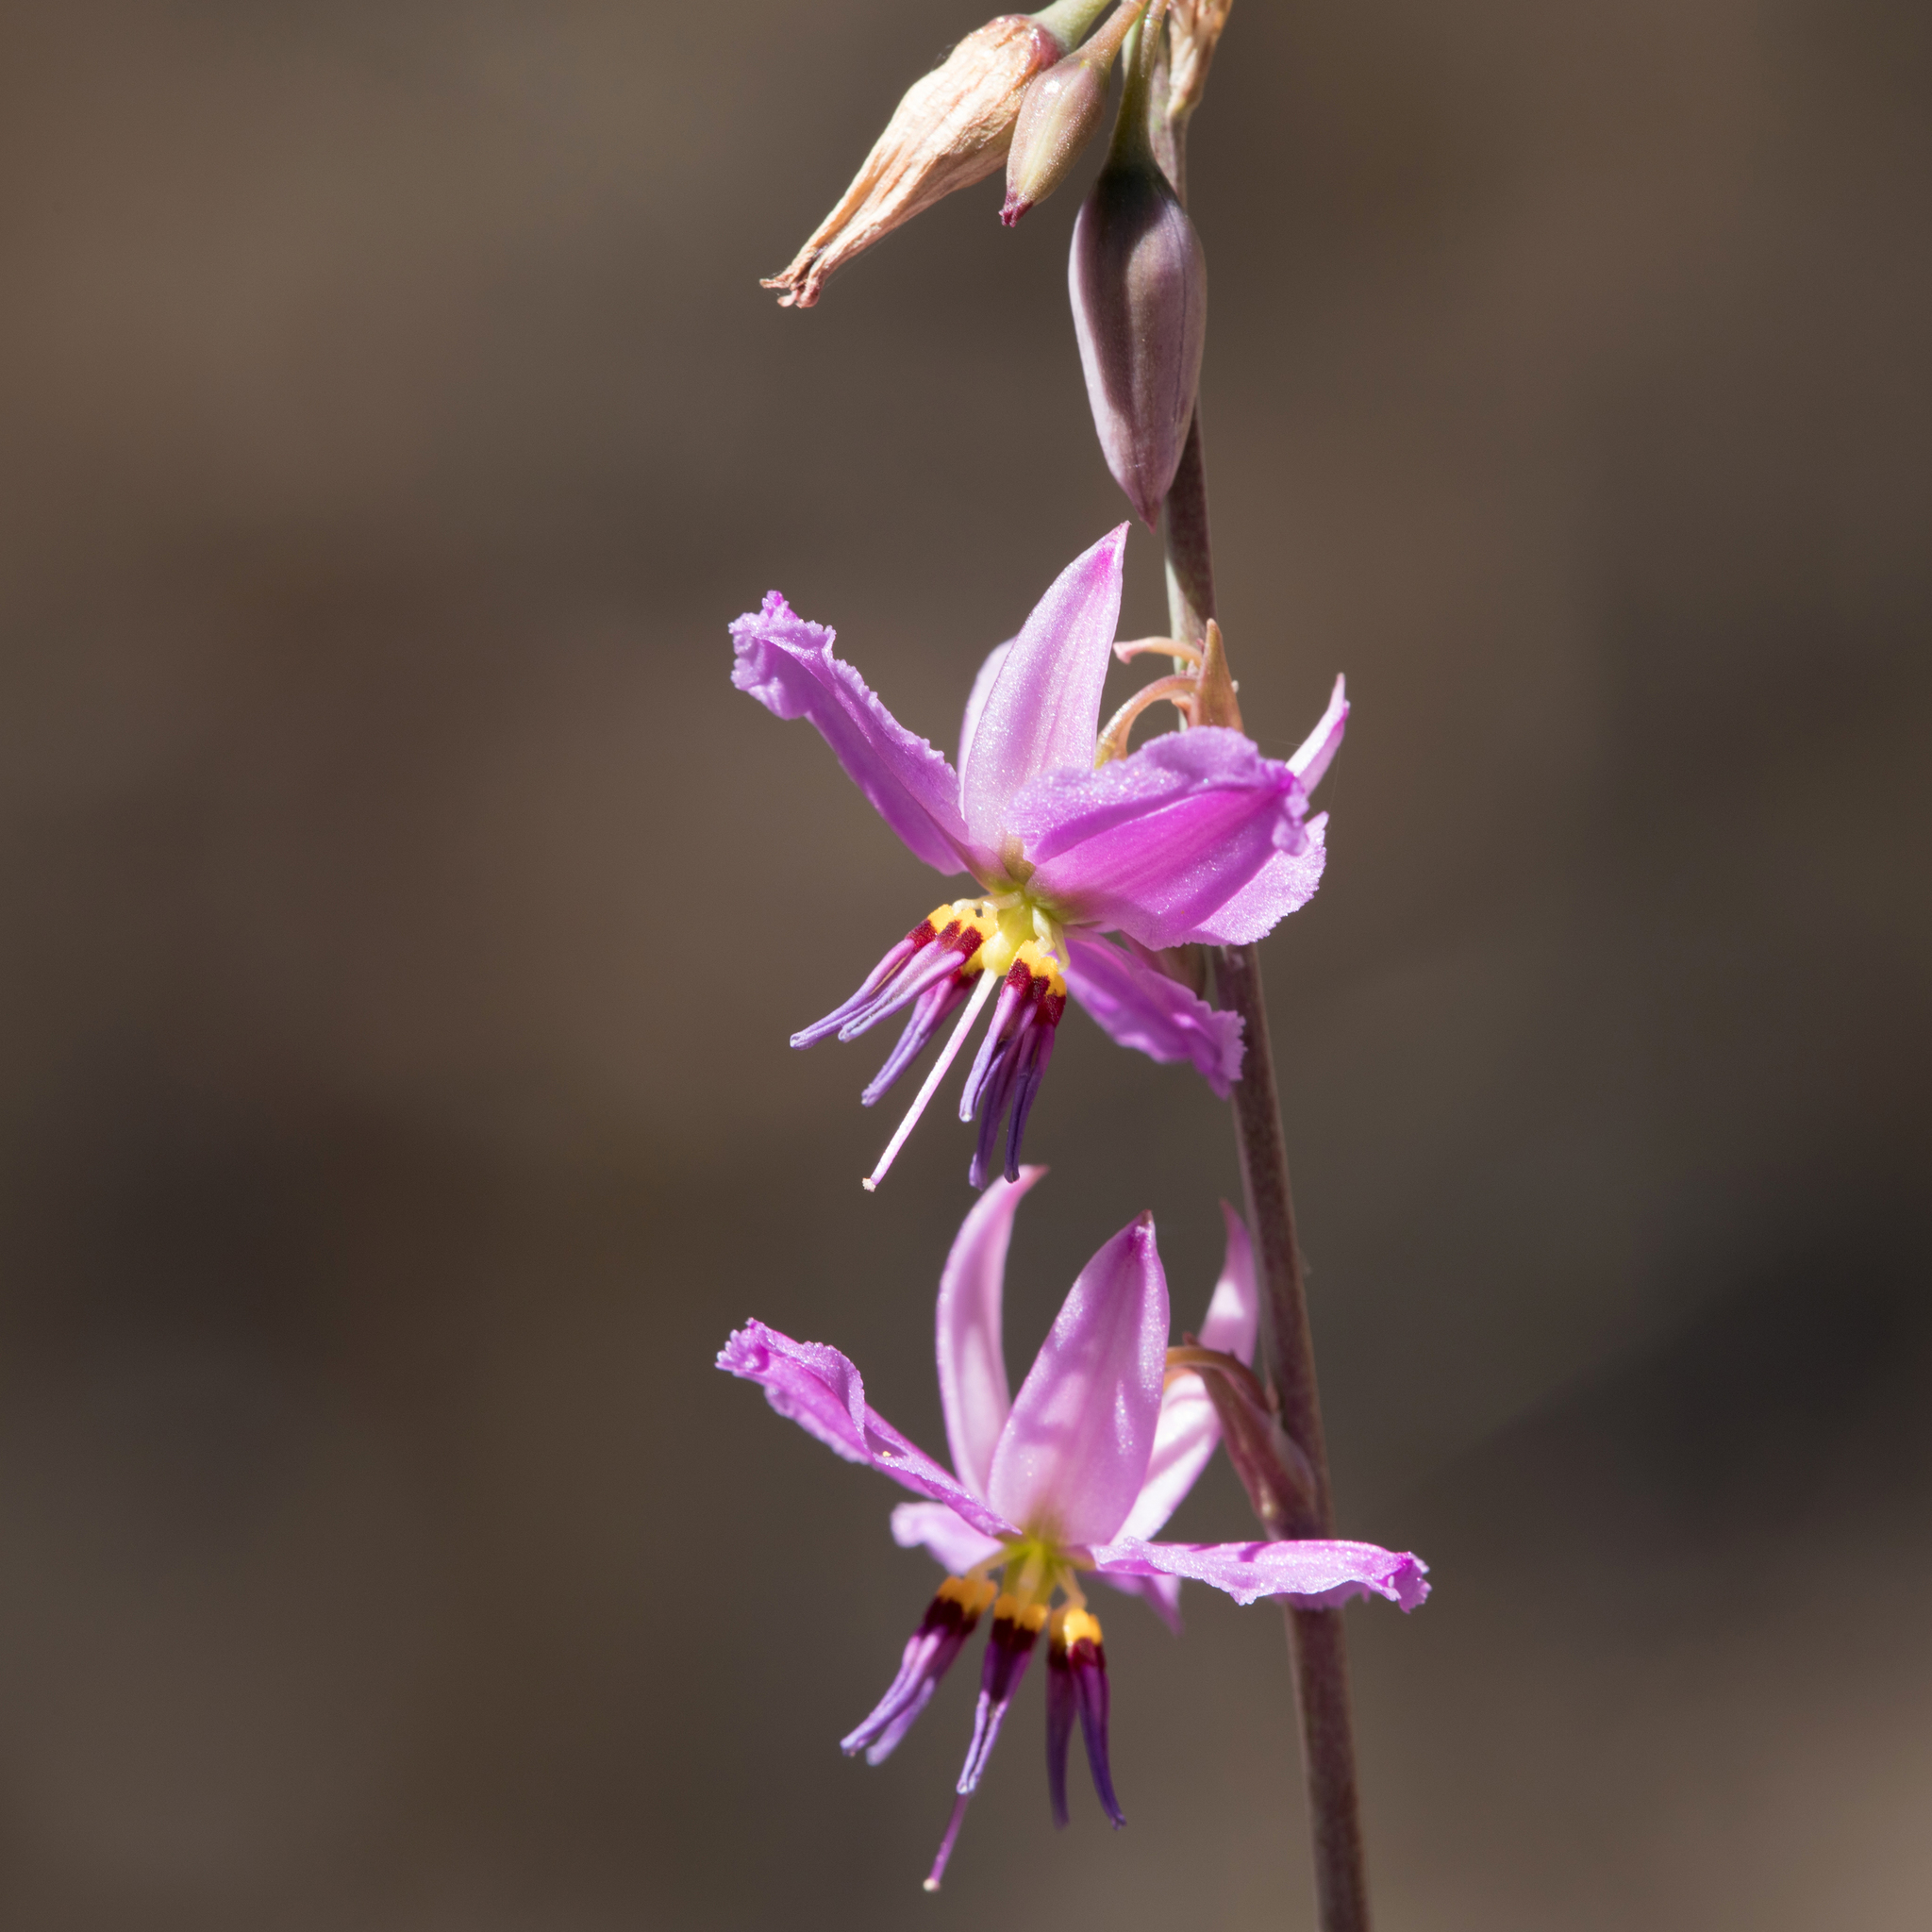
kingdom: Plantae
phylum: Tracheophyta
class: Liliopsida
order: Asparagales
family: Asparagaceae
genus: Dichopogon
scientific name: Dichopogon fimbriatus
